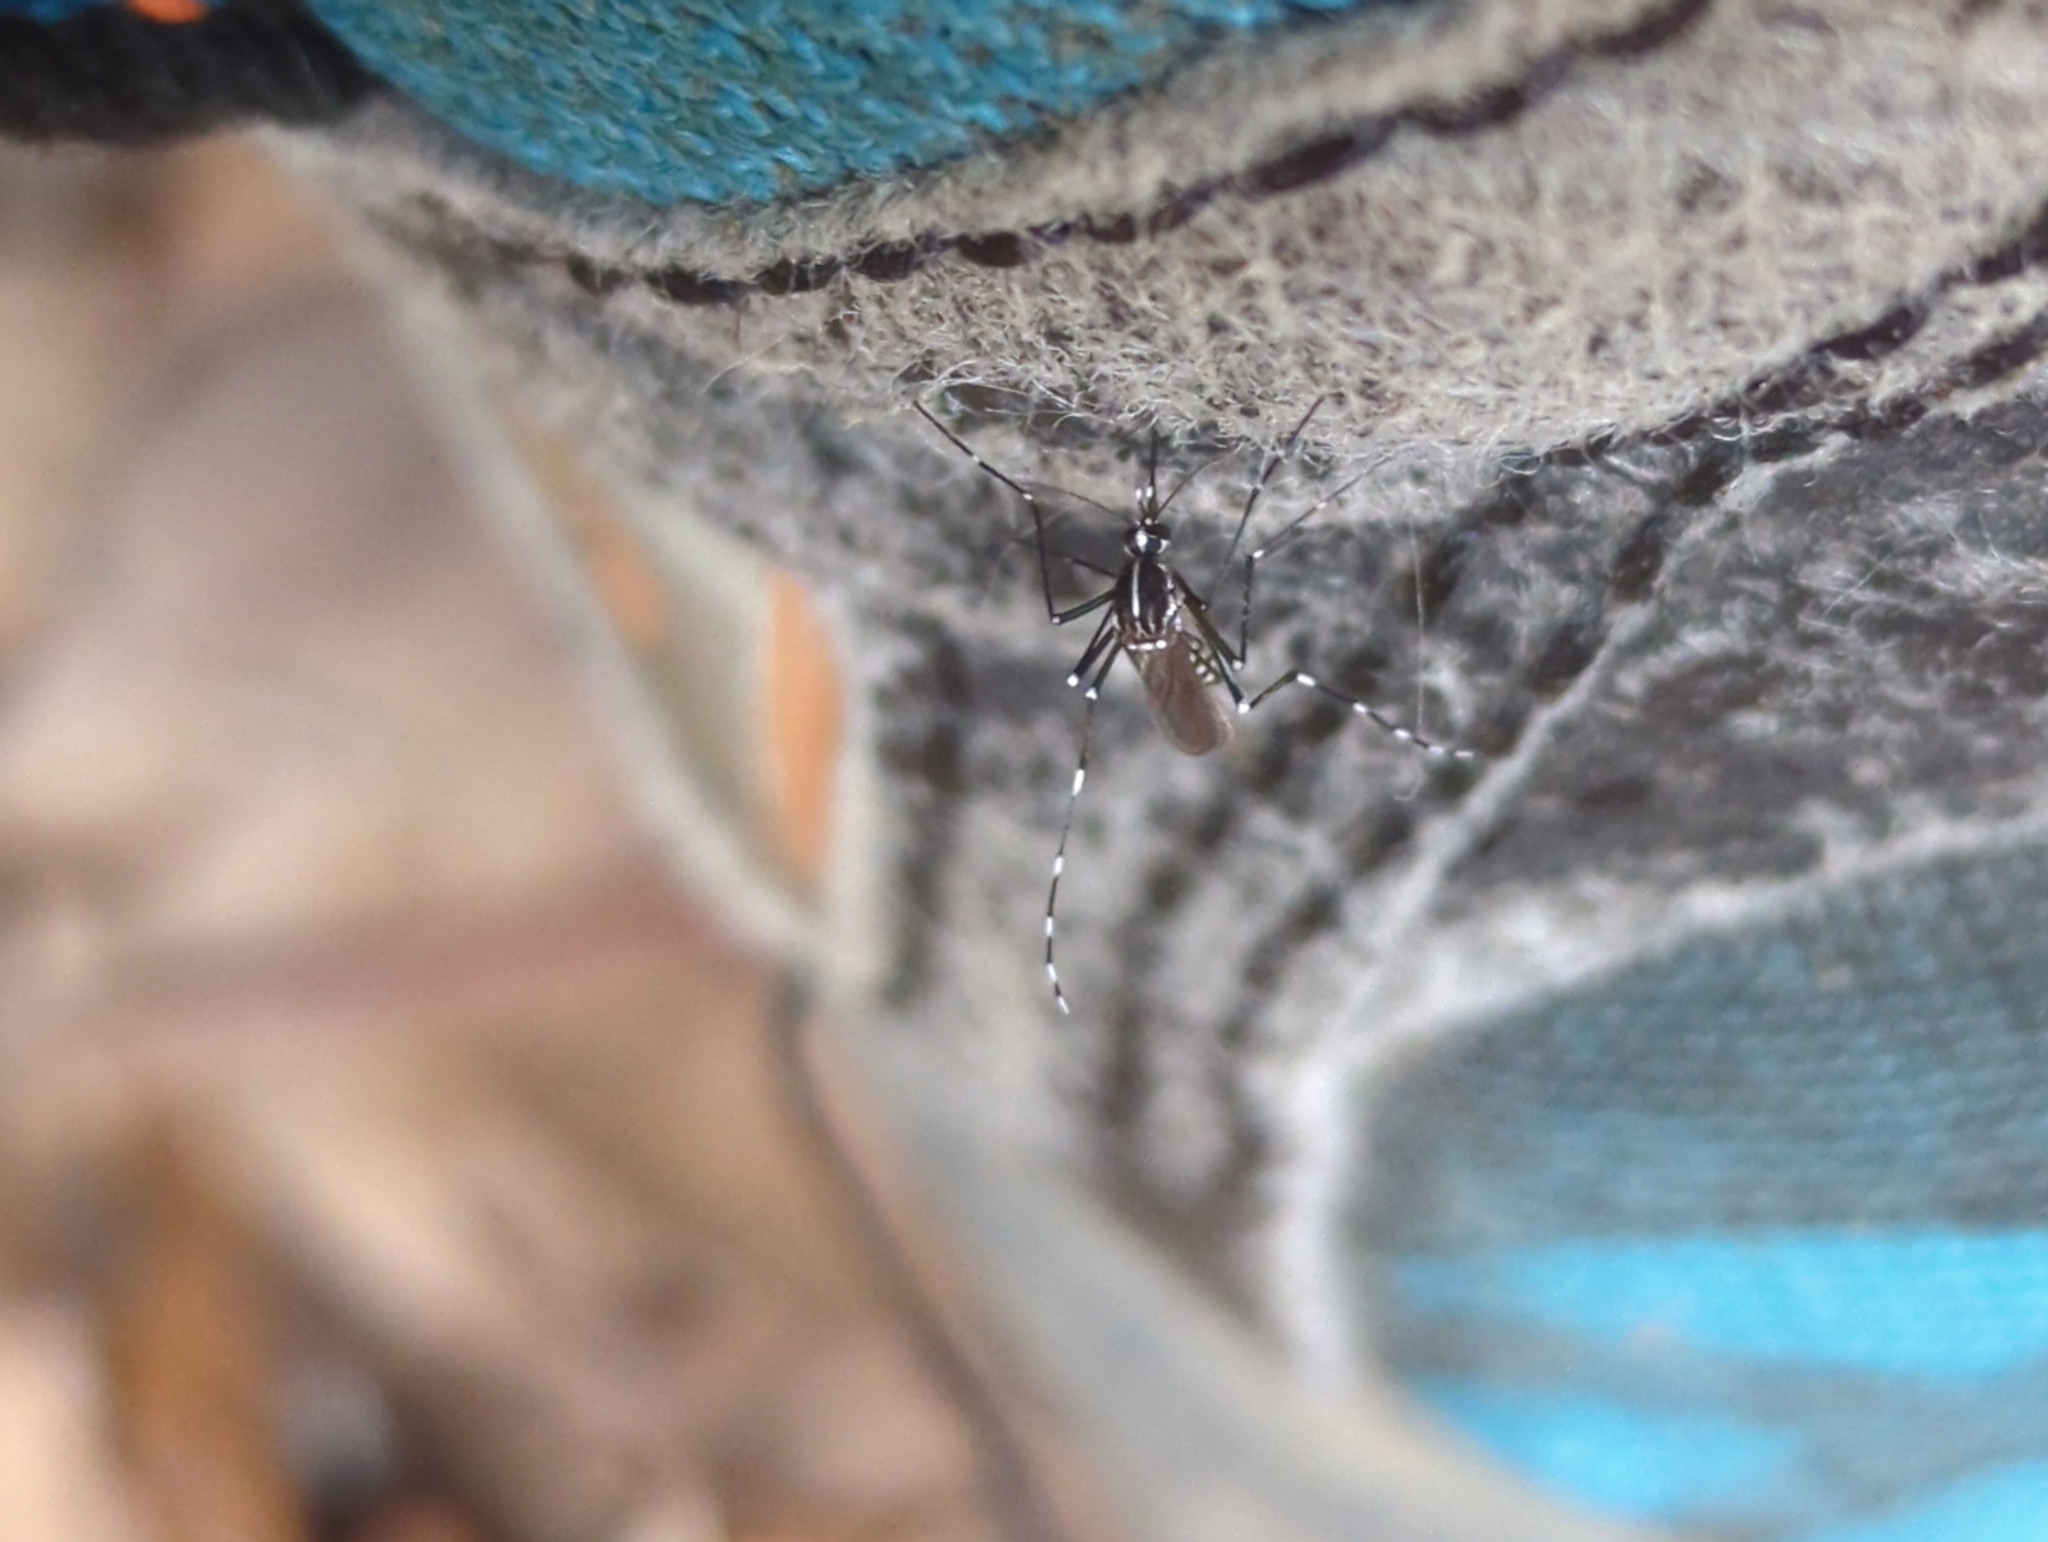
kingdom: Animalia
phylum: Arthropoda
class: Insecta
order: Diptera
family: Culicidae
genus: Aedes
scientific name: Aedes albopictus
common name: Tiger mosquito
